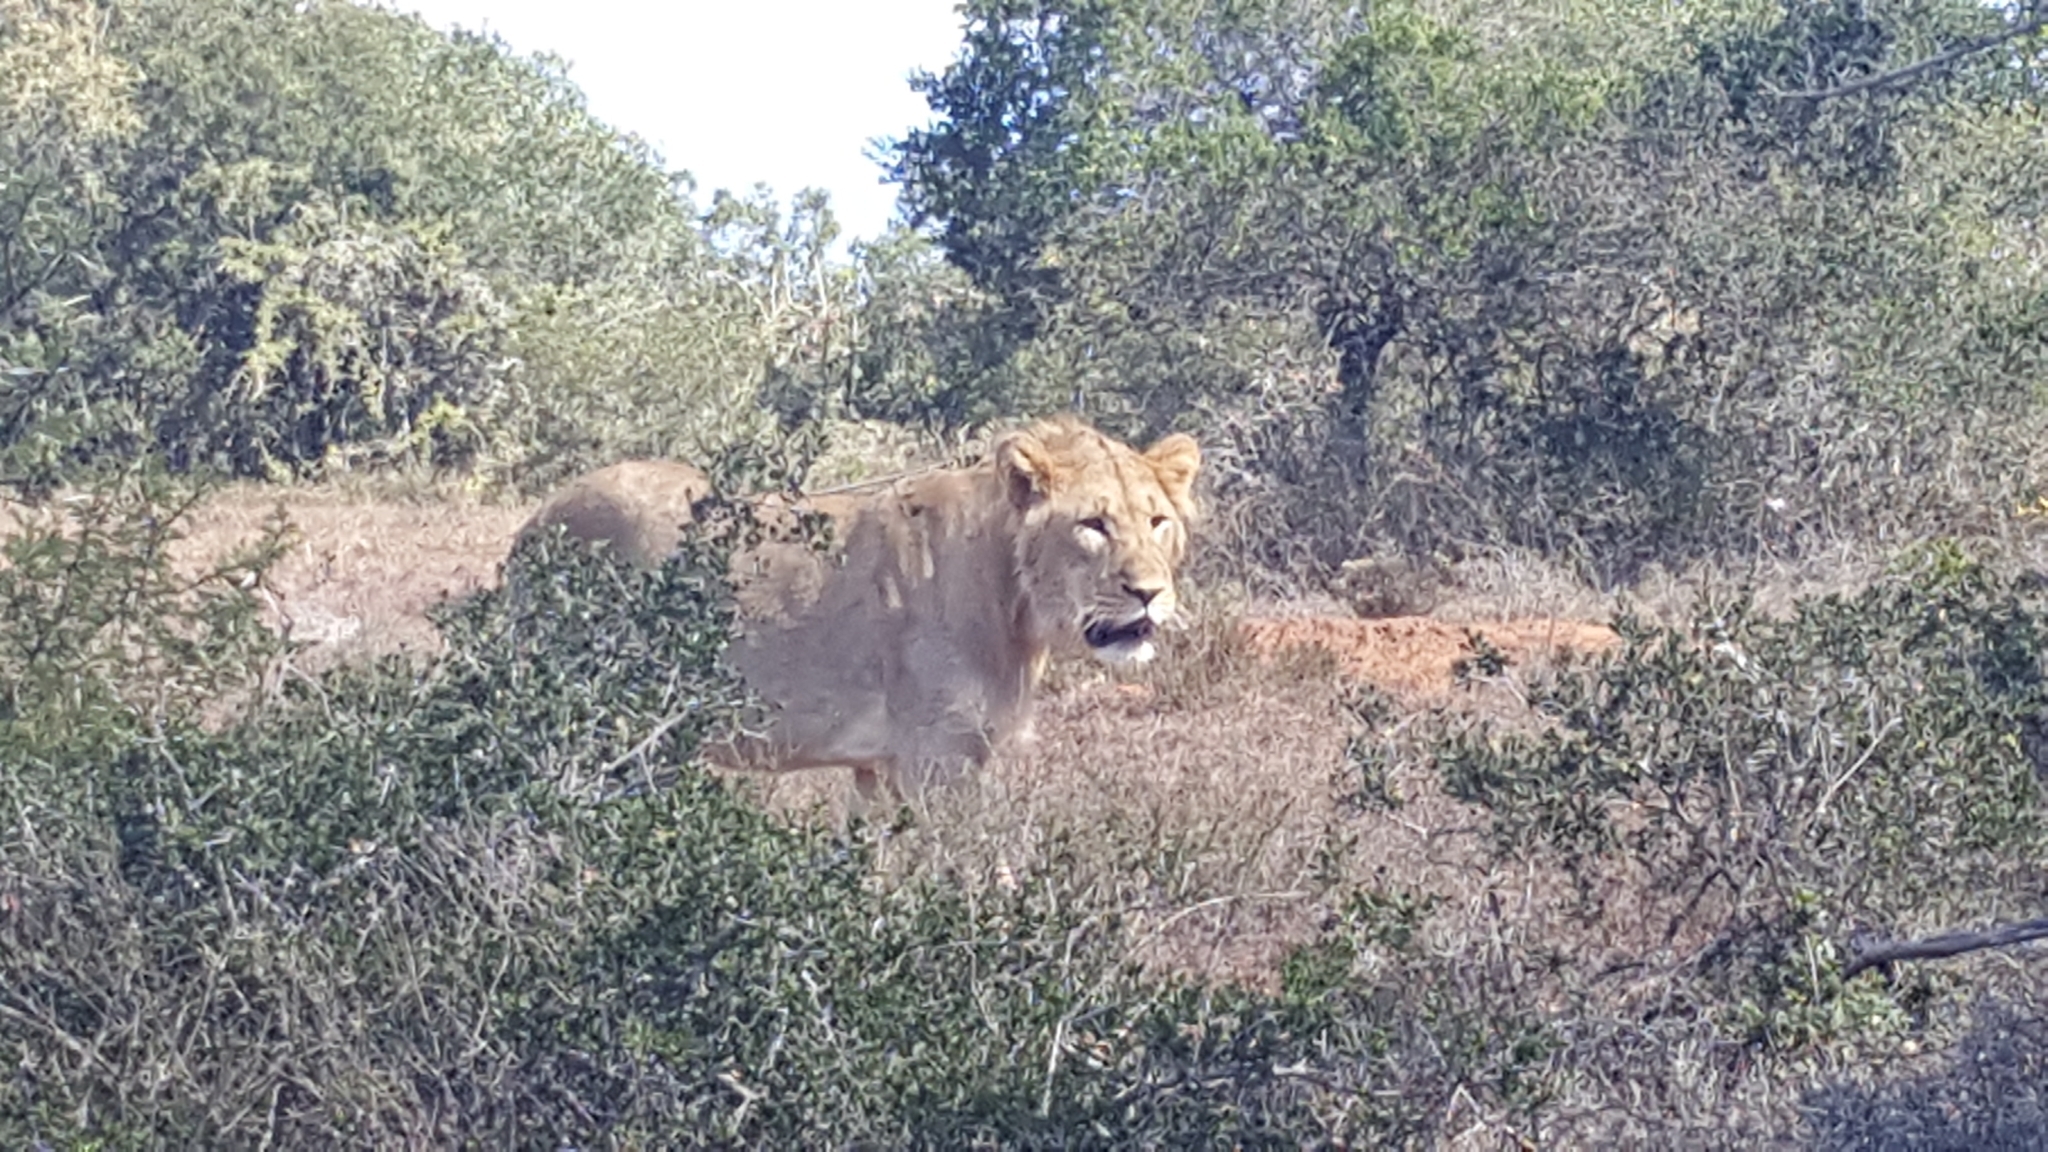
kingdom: Animalia
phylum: Chordata
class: Mammalia
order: Carnivora
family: Felidae
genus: Panthera
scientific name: Panthera leo
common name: Lion
